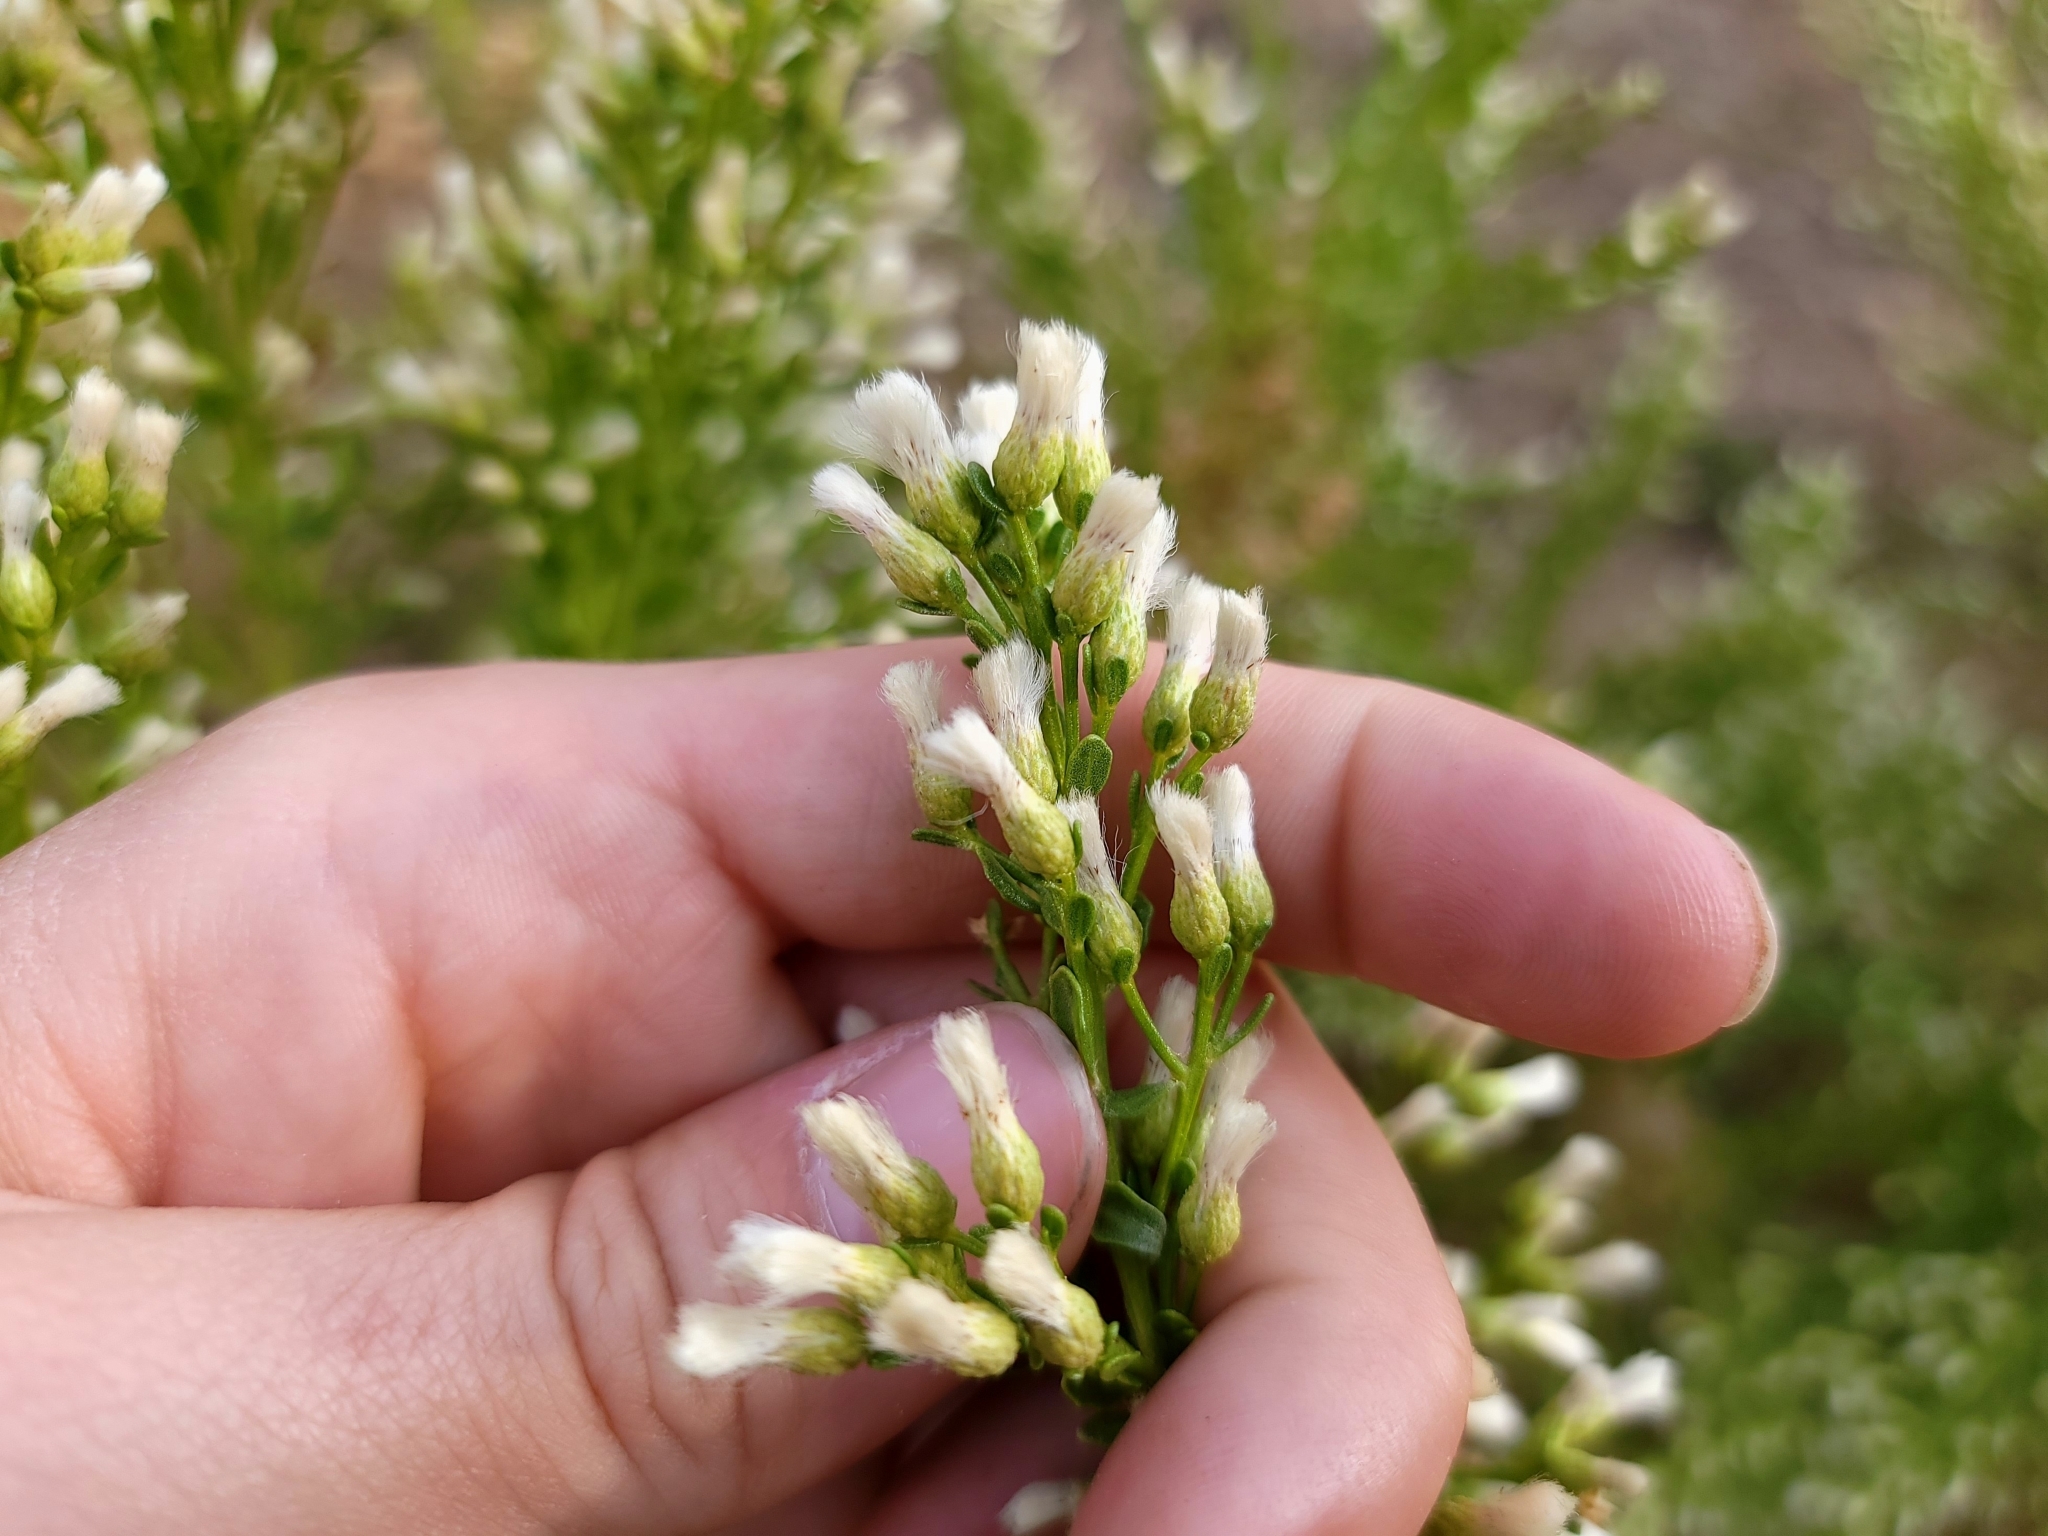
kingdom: Plantae
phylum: Tracheophyta
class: Magnoliopsida
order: Asterales
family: Asteraceae
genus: Baccharis
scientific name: Baccharis pilularis
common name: Coyotebrush
